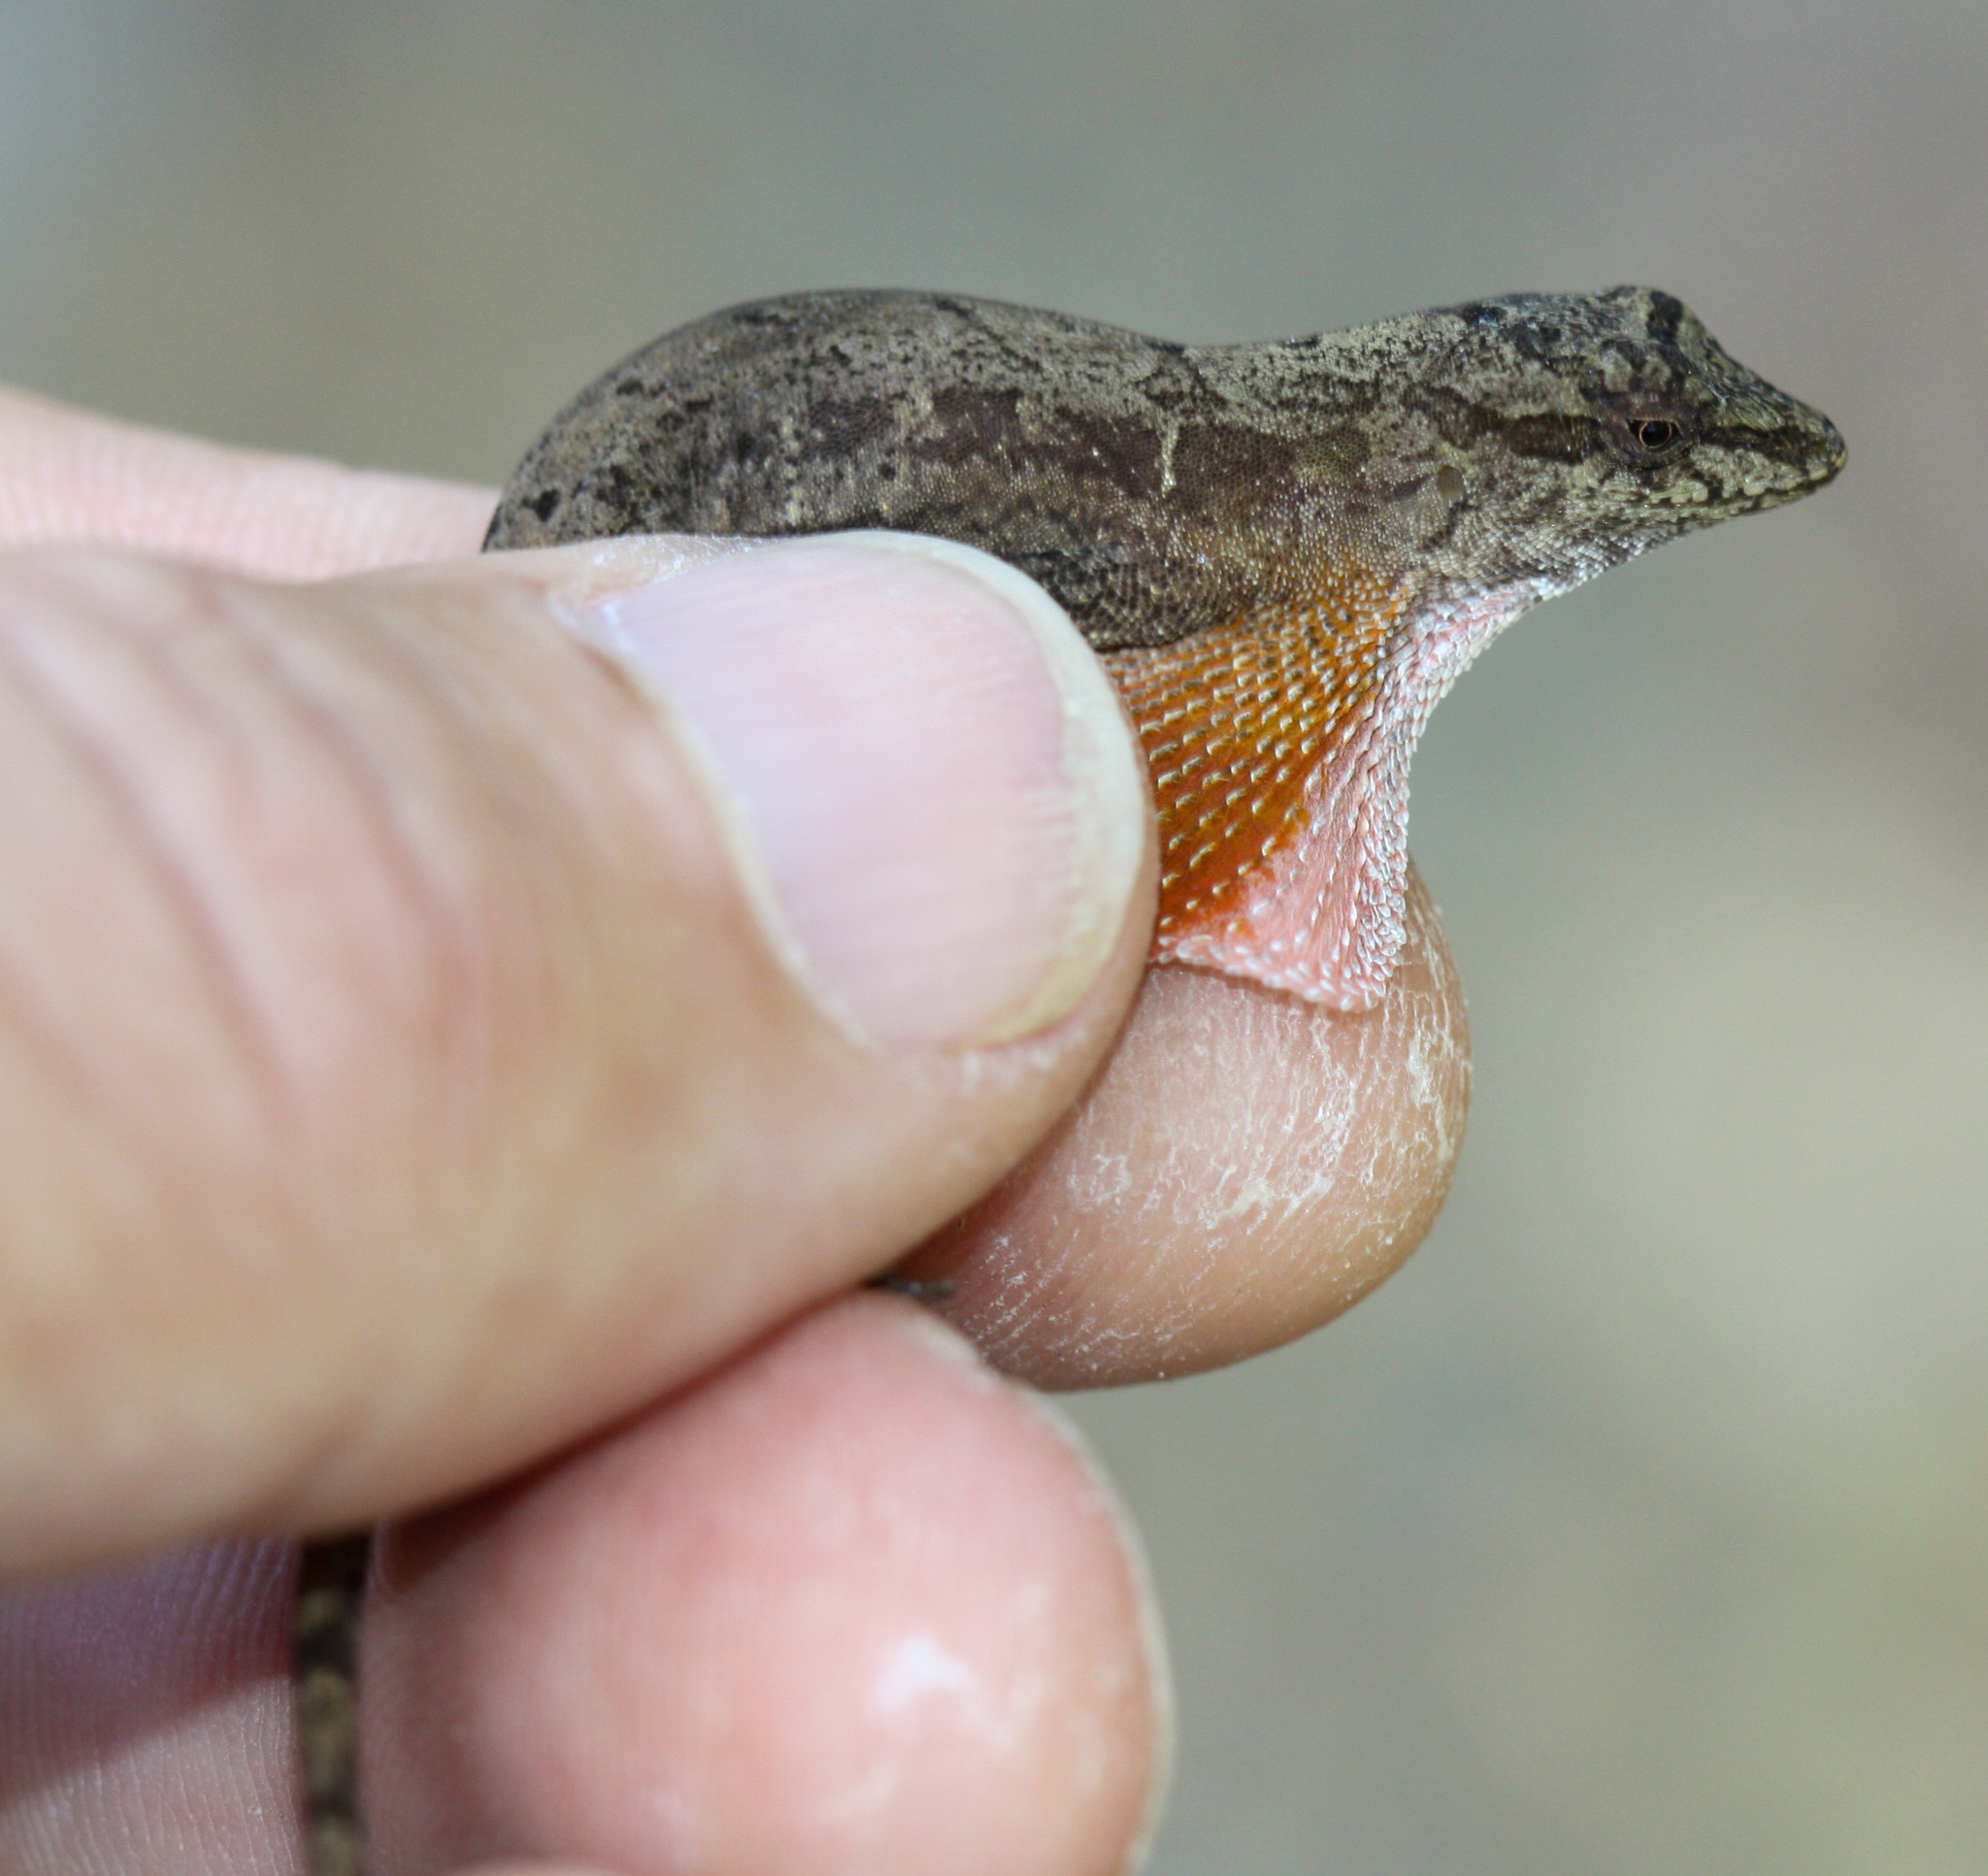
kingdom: Animalia
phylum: Chordata
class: Squamata
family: Dactyloidae
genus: Anolis
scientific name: Anolis cupreus
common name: Copper anole
